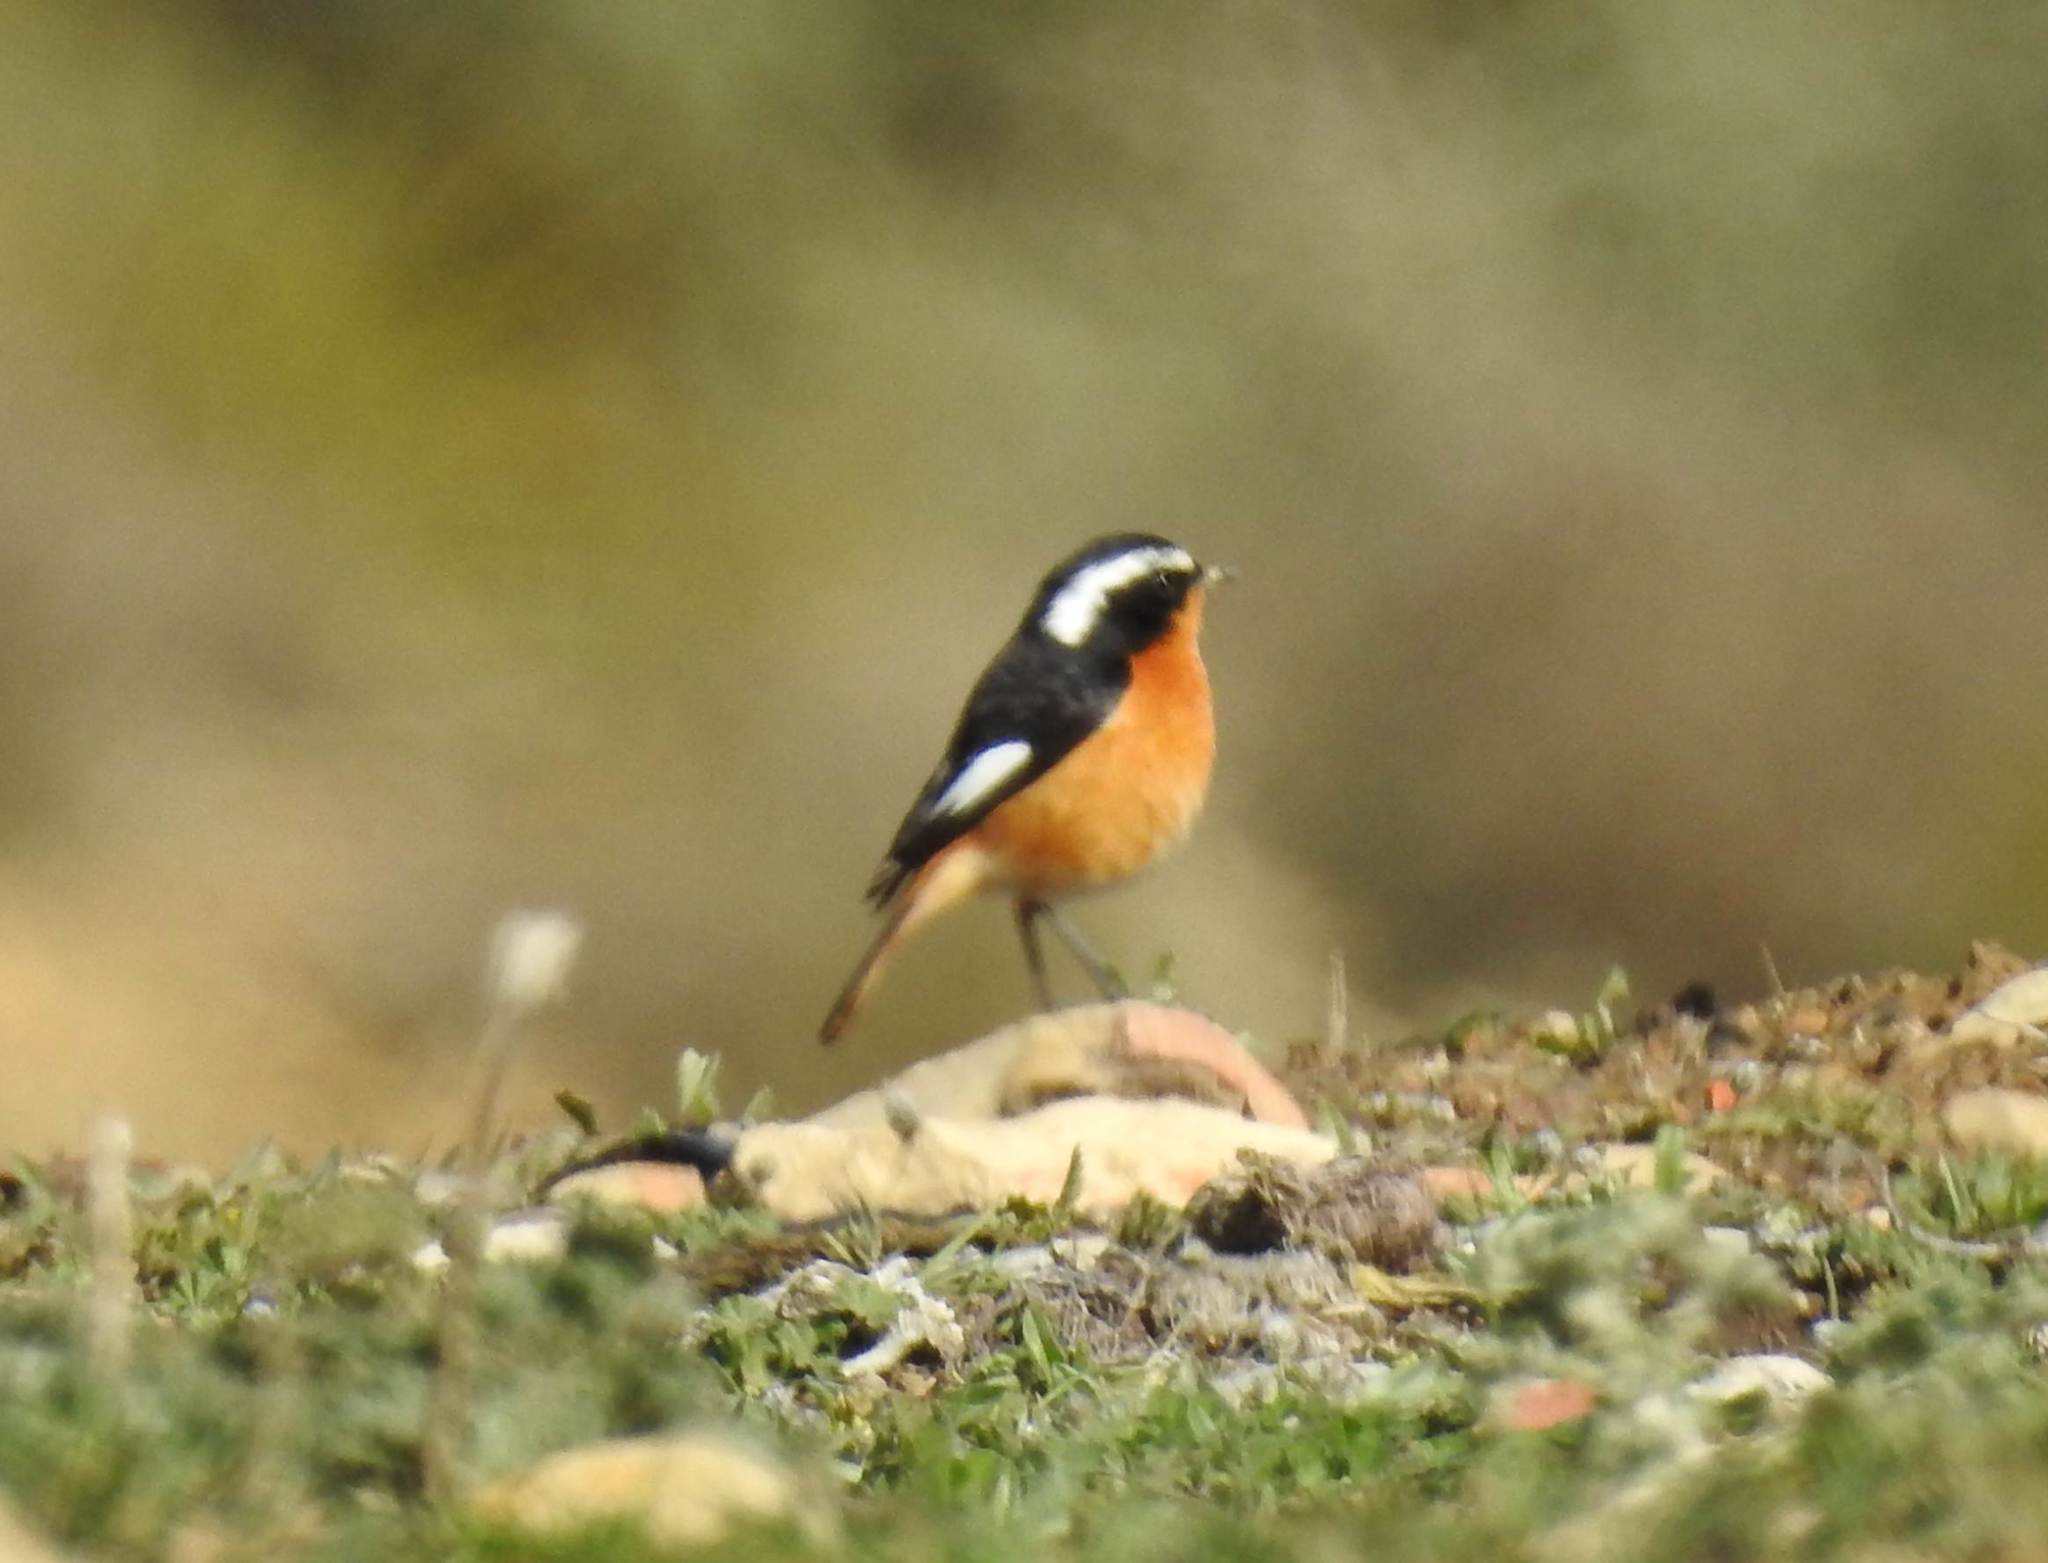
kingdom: Animalia
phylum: Chordata
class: Aves
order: Passeriformes
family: Muscicapidae
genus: Phoenicurus
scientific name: Phoenicurus moussieri
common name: Moussier's redstart
